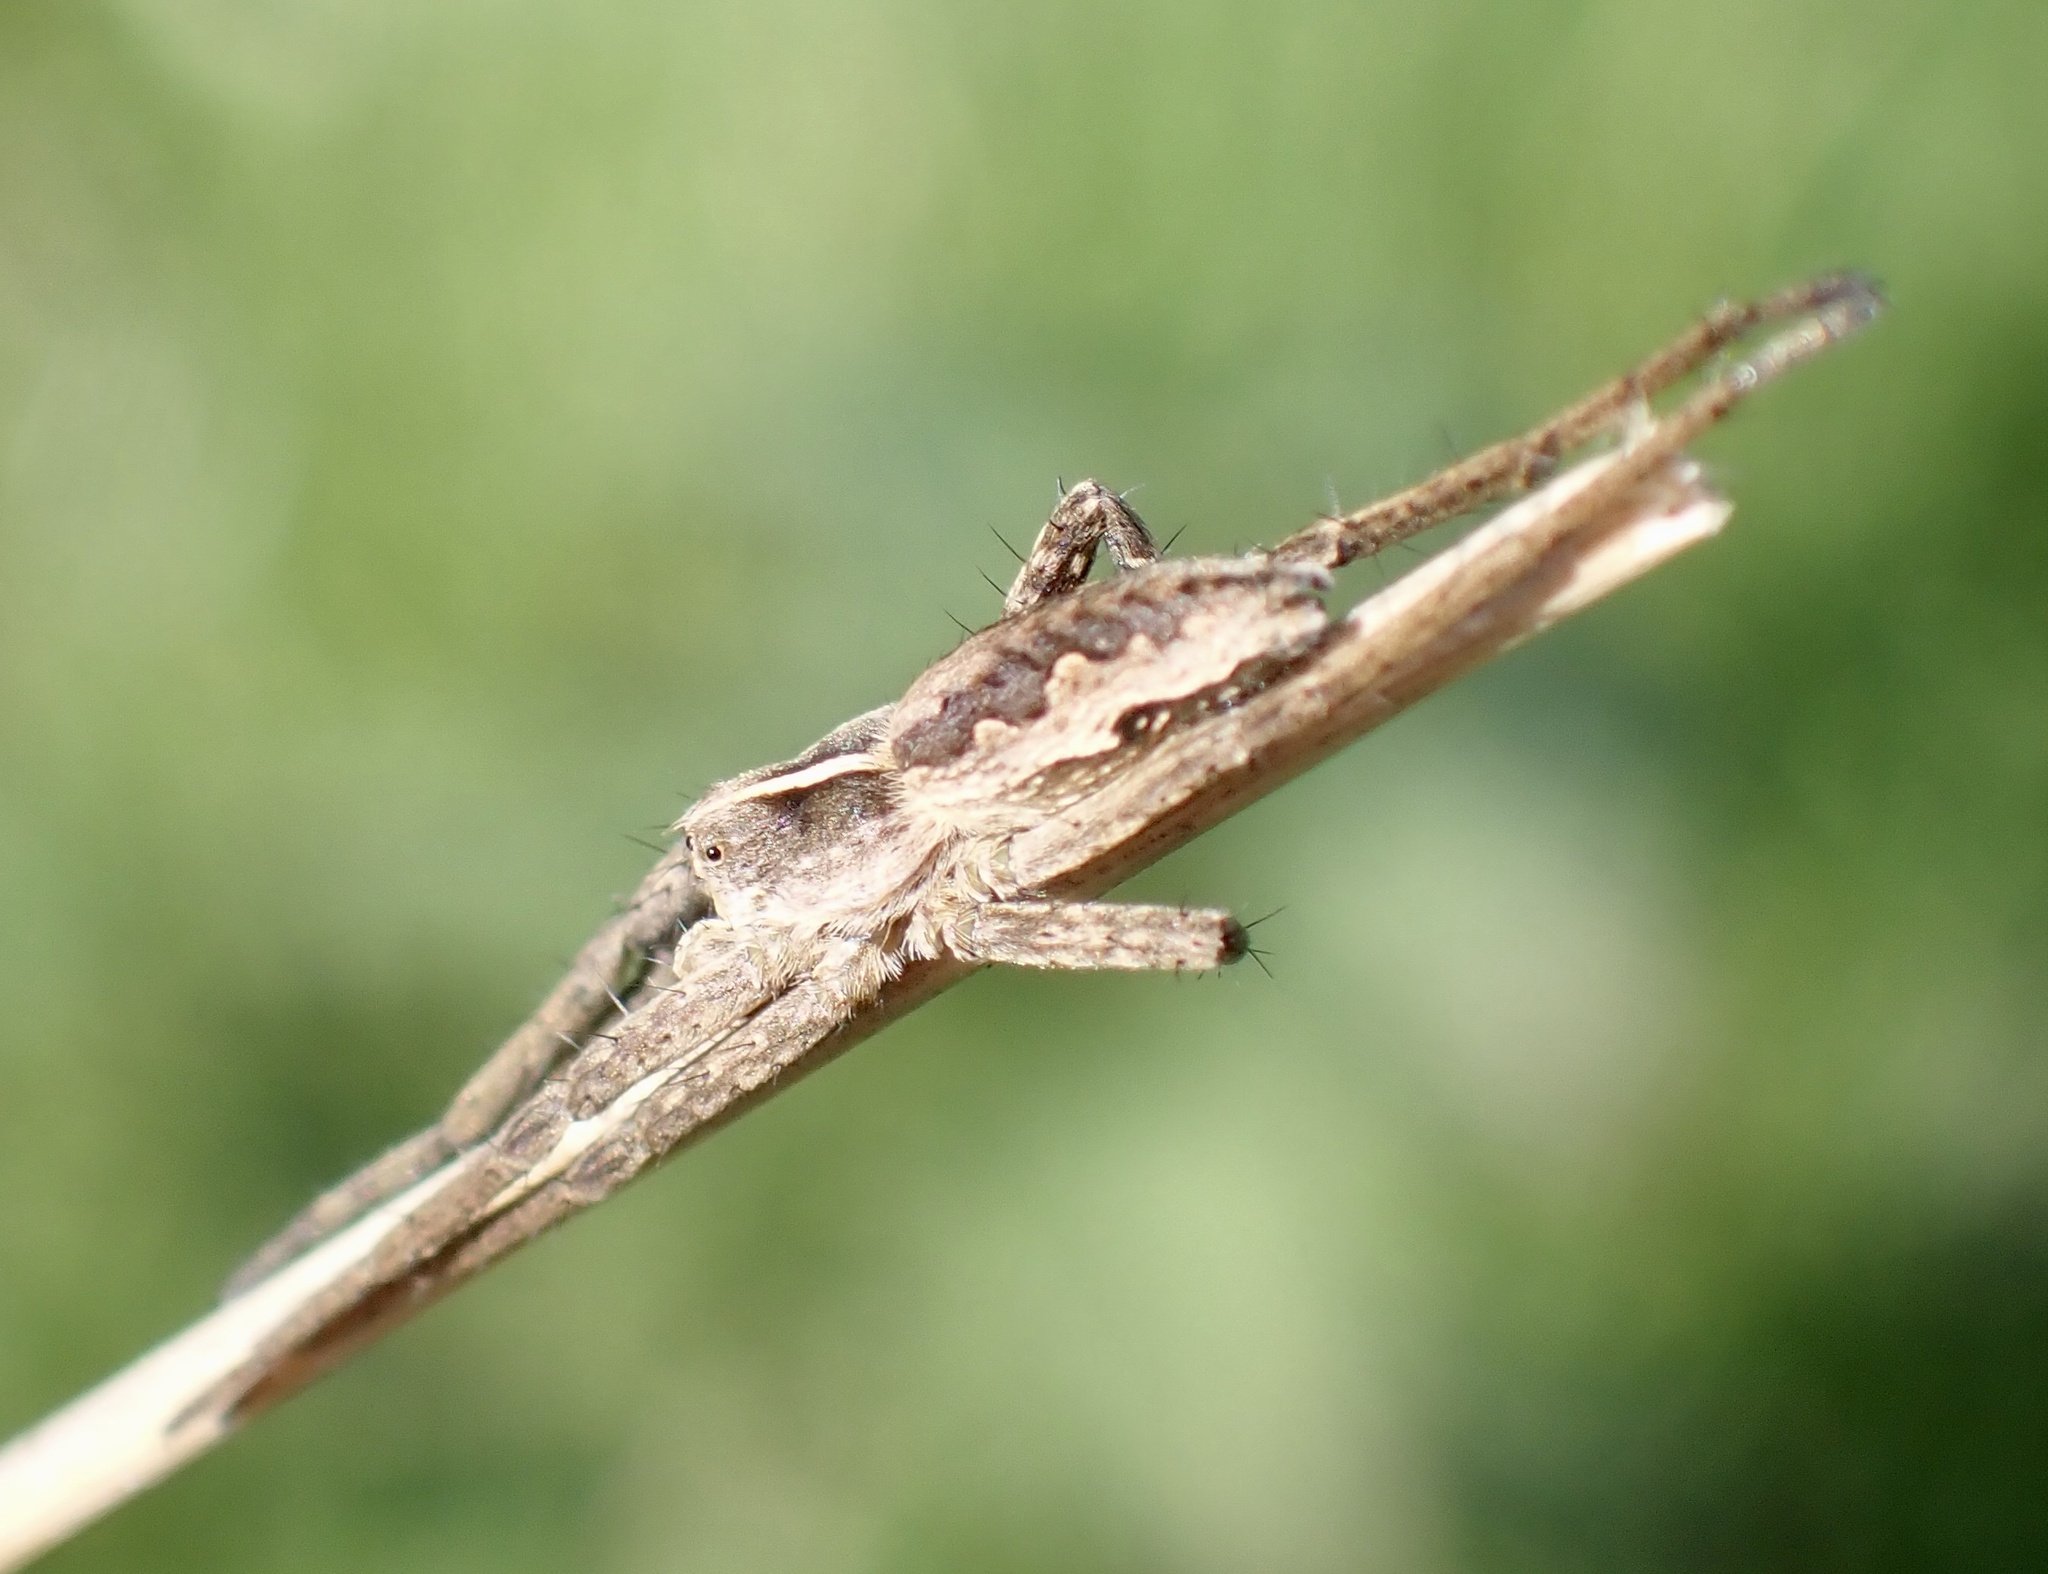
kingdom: Animalia
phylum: Arthropoda
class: Arachnida
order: Araneae
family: Pisauridae
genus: Pisaura
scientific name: Pisaura mirabilis
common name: Tent spider
